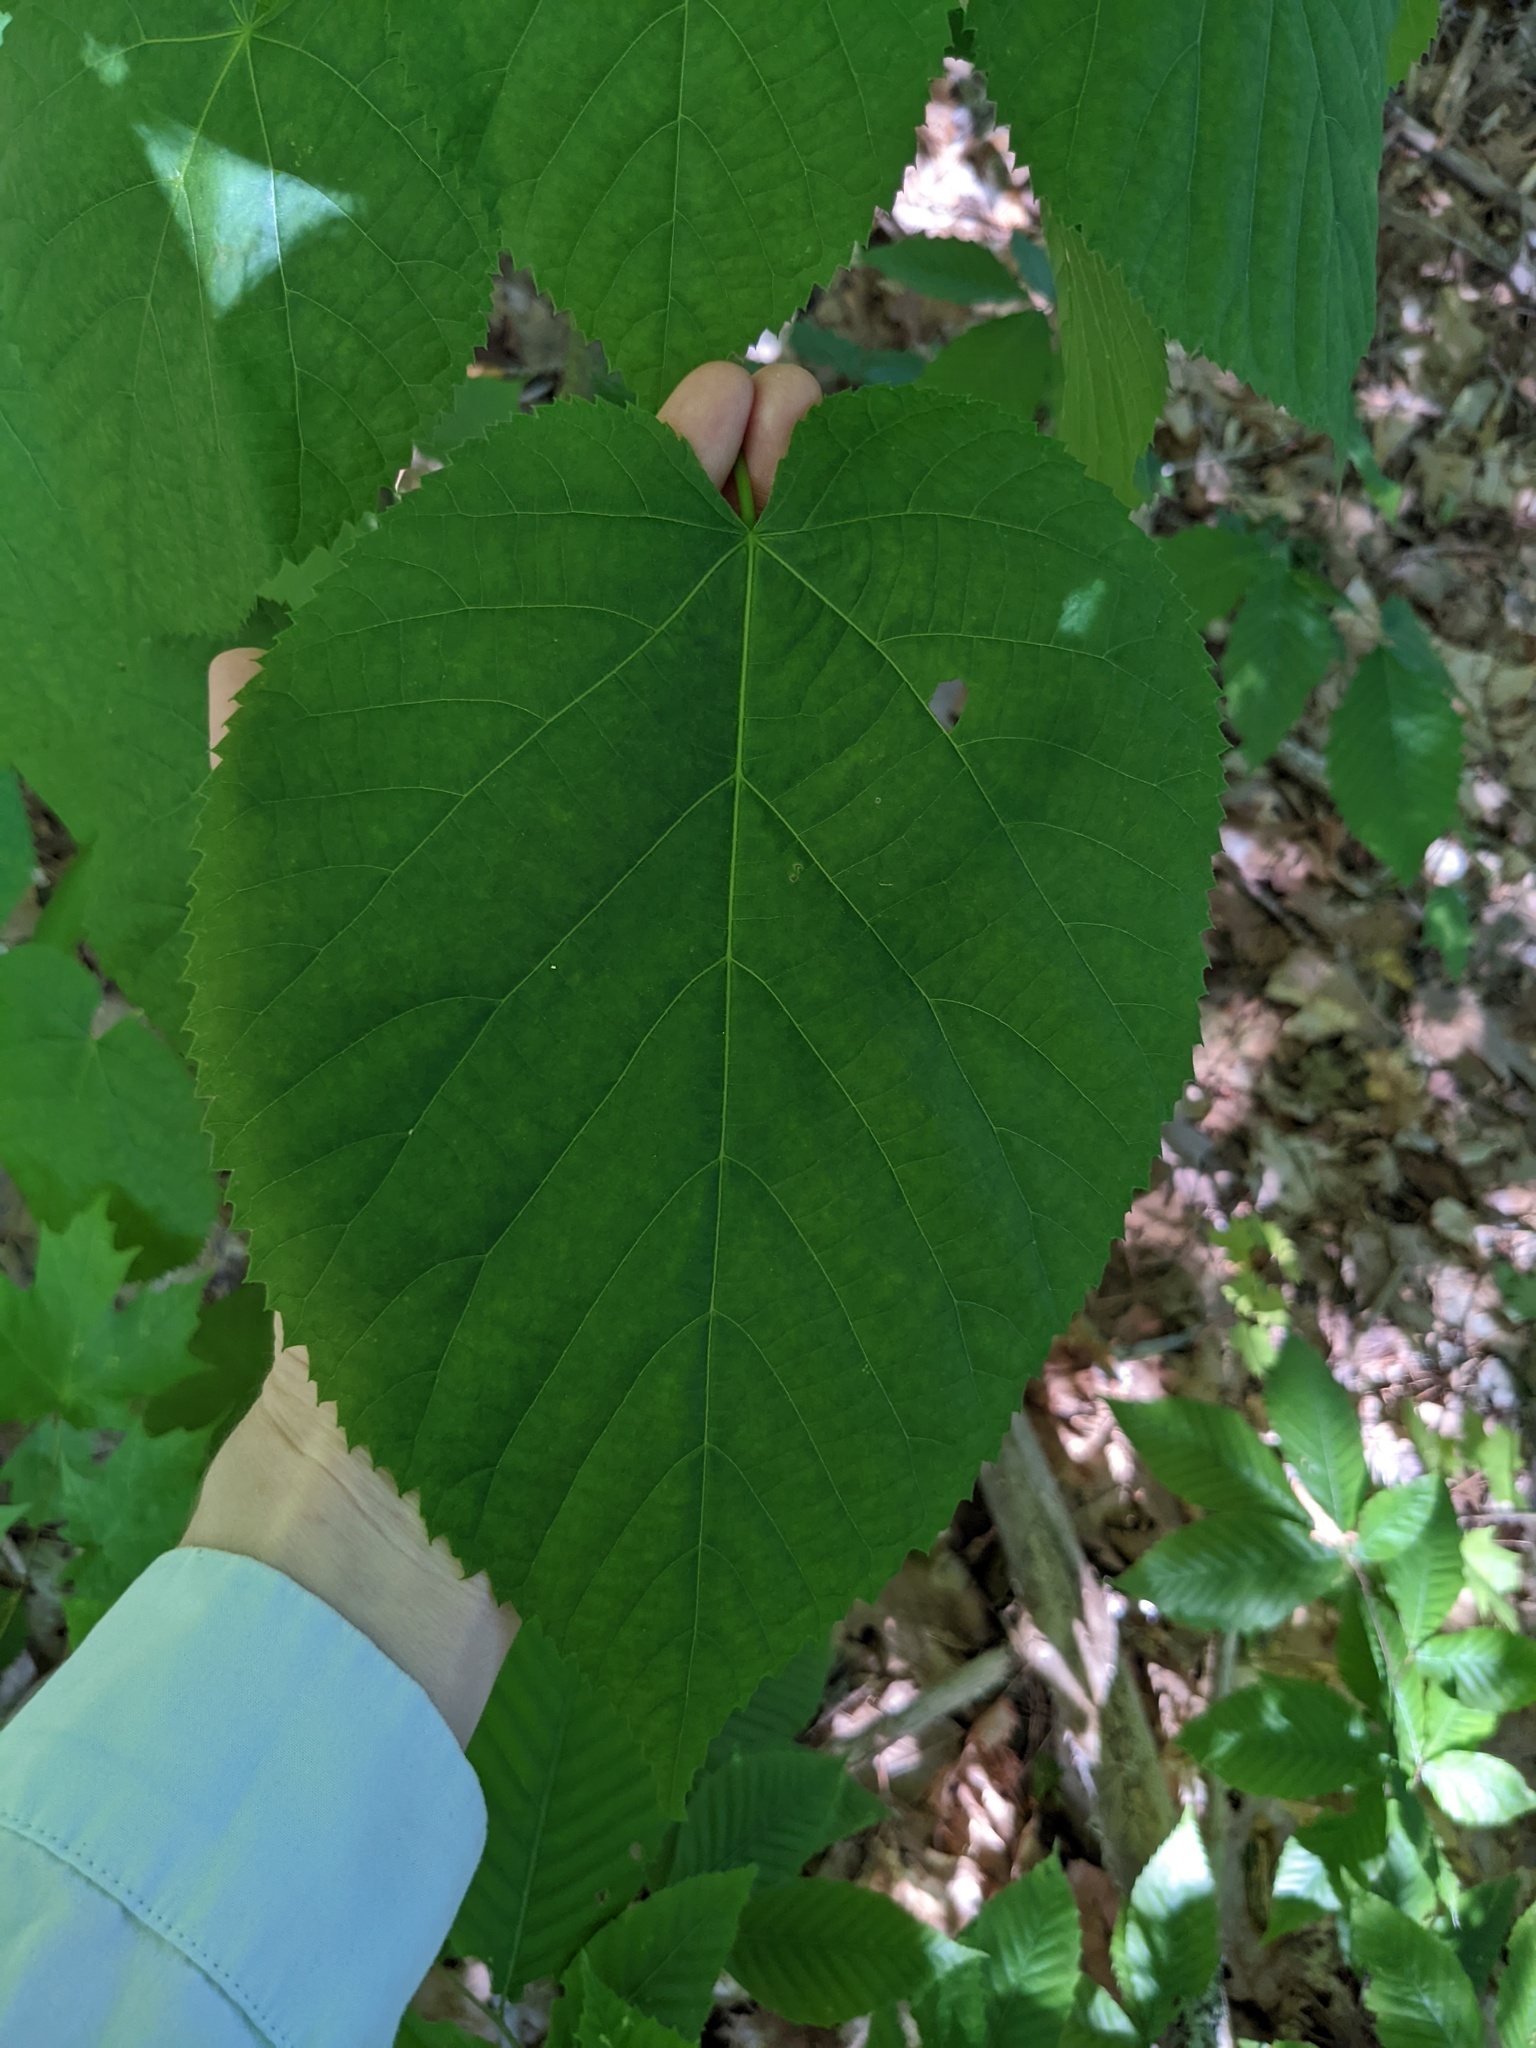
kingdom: Plantae
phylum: Tracheophyta
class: Magnoliopsida
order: Malvales
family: Malvaceae
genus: Tilia
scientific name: Tilia americana
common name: Basswood
